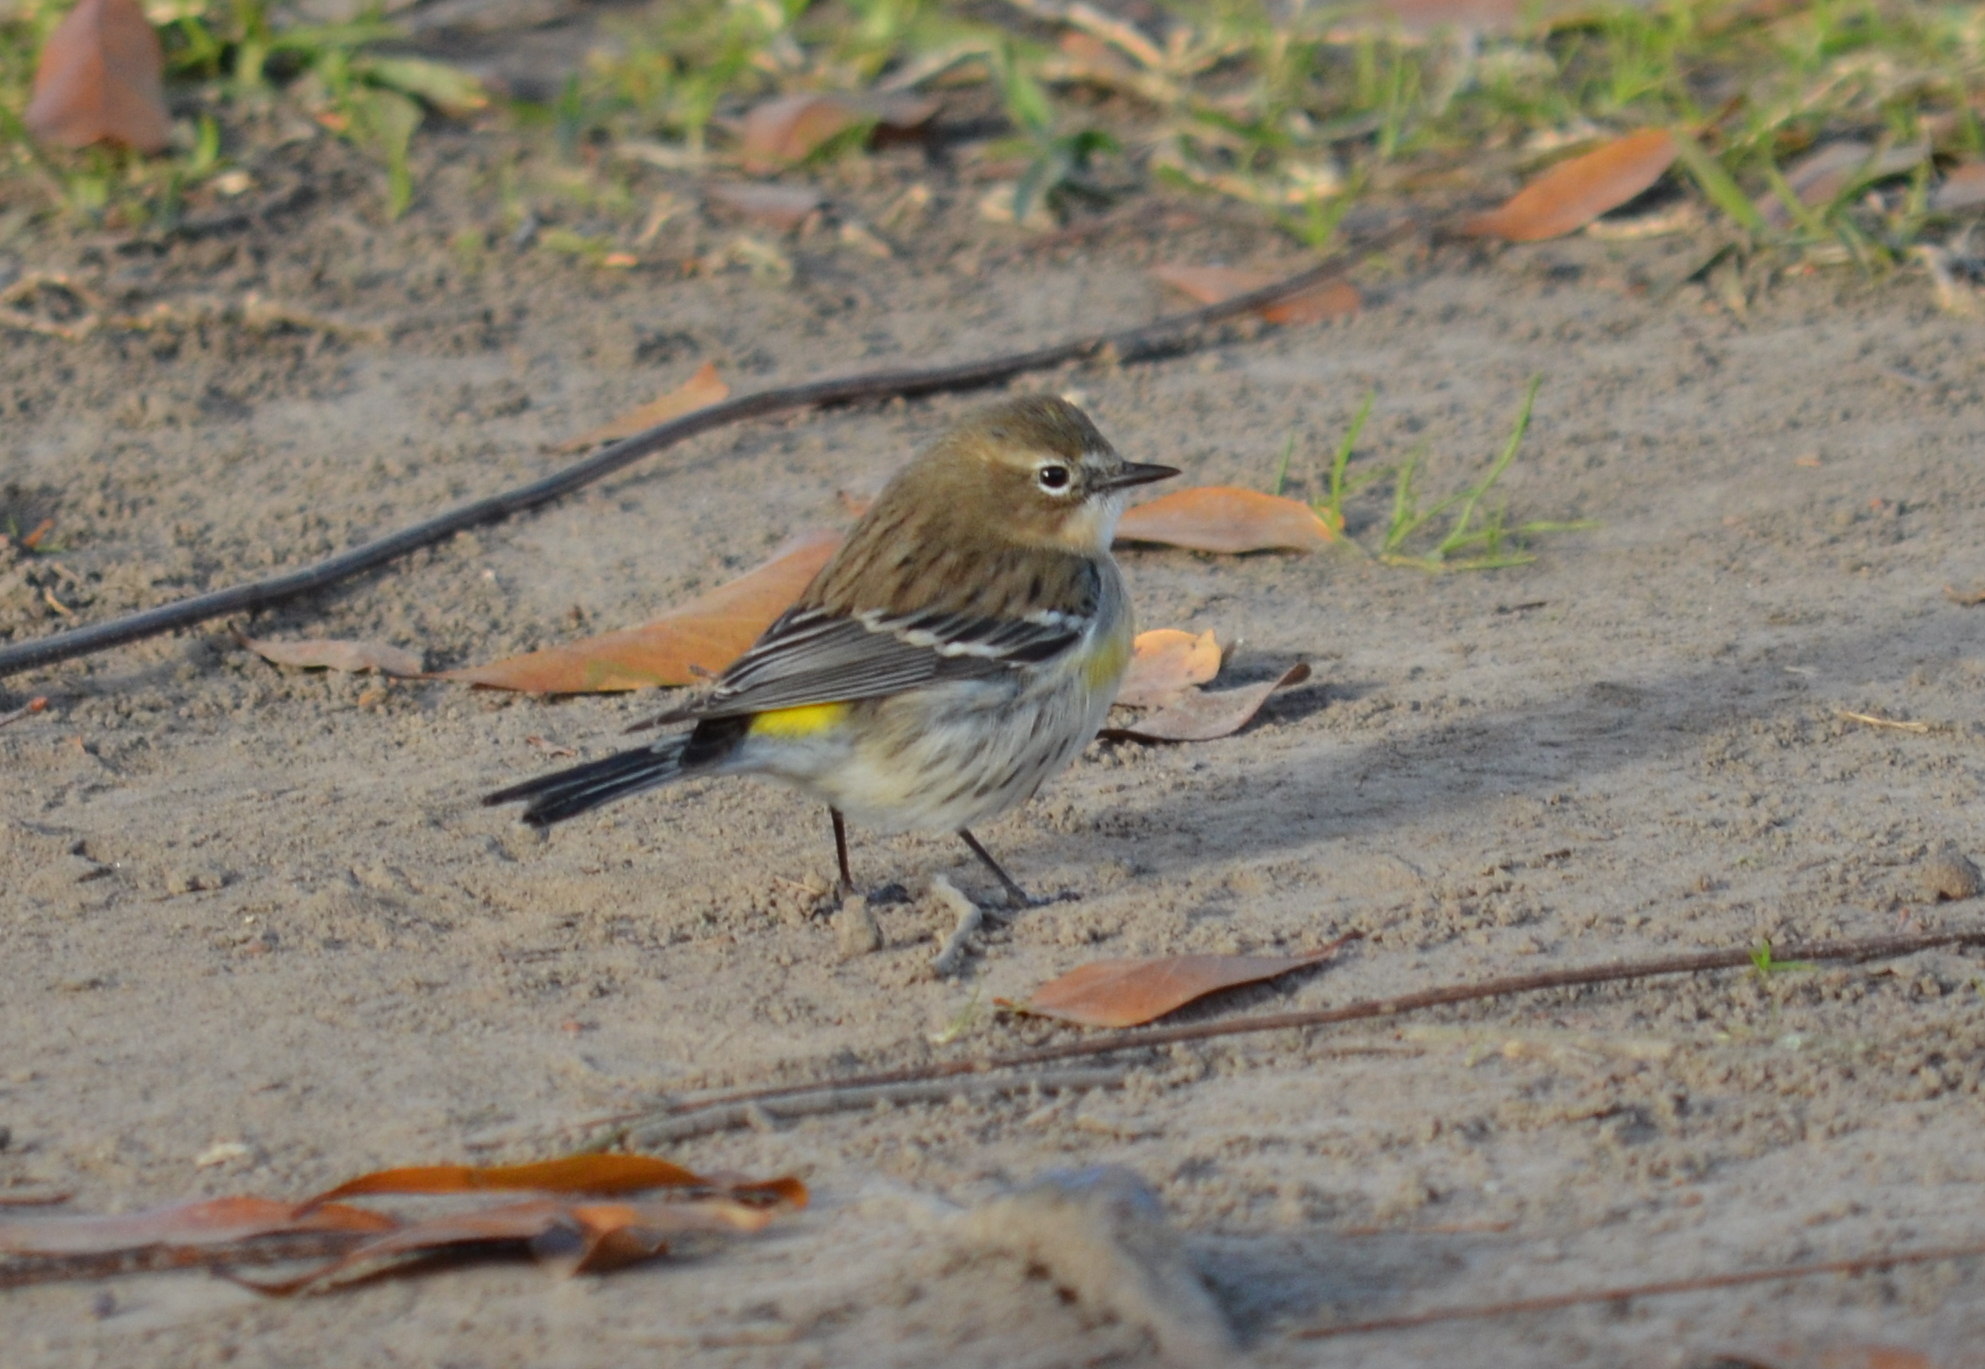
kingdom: Animalia
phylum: Chordata
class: Aves
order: Passeriformes
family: Parulidae
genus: Setophaga
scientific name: Setophaga coronata
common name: Myrtle warbler
